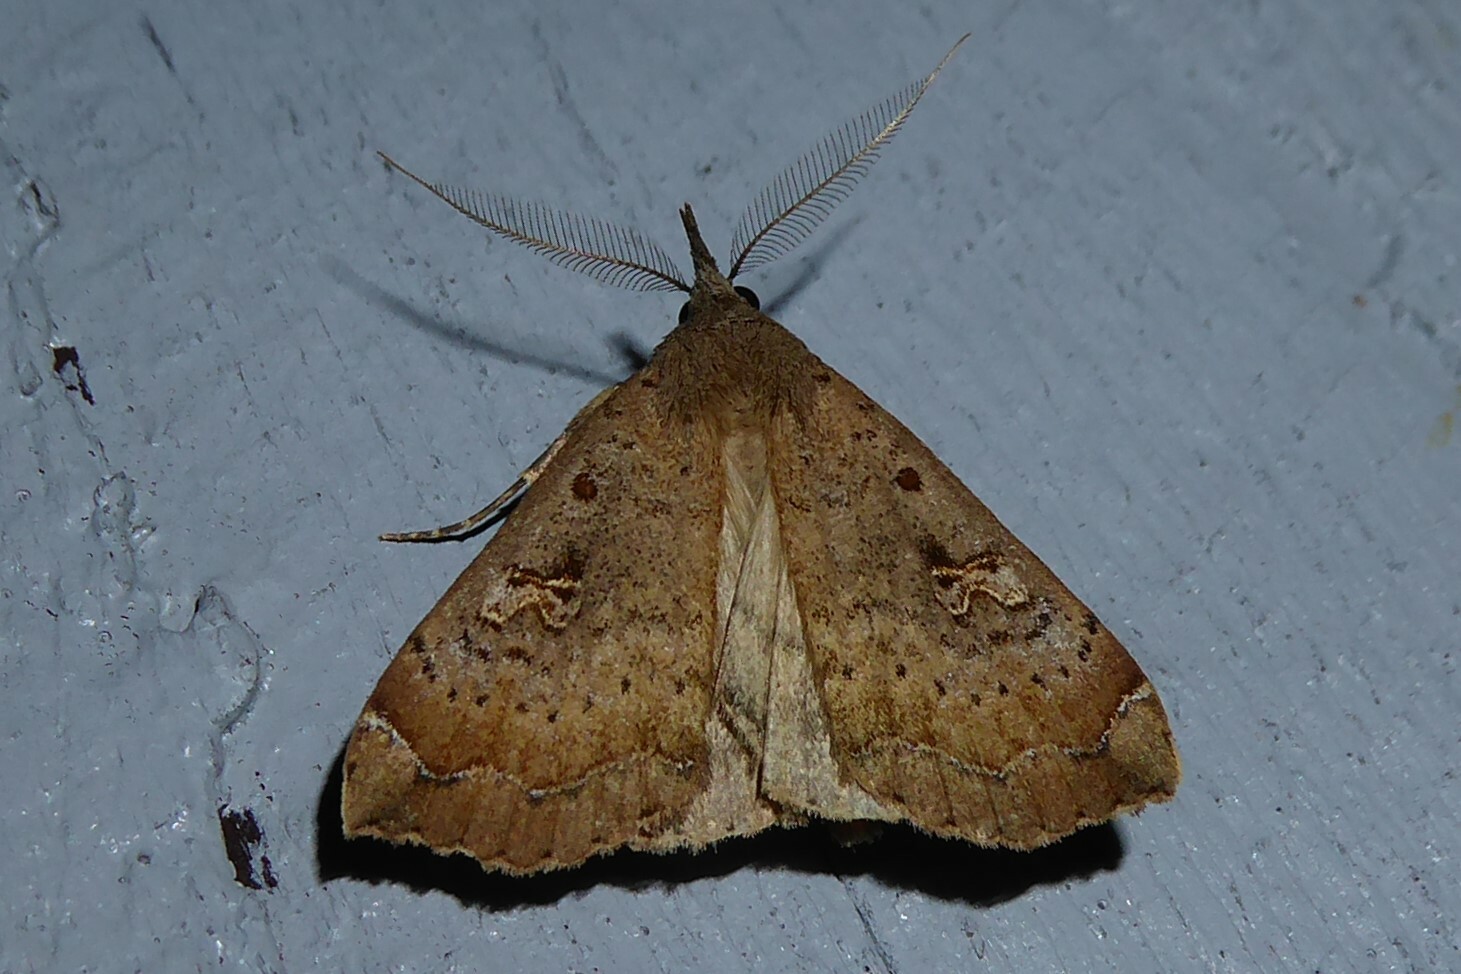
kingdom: Animalia
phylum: Arthropoda
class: Insecta
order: Lepidoptera
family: Erebidae
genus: Rhapsa
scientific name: Rhapsa scotosialis
